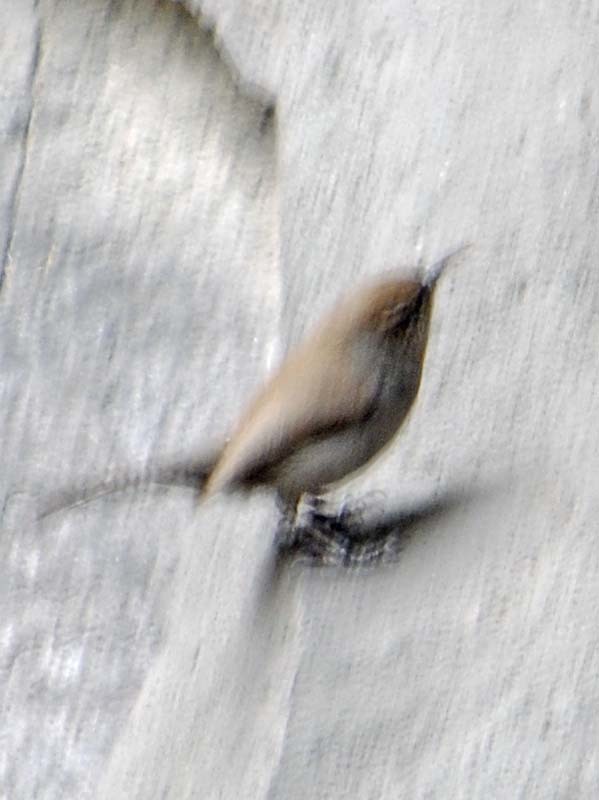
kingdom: Animalia
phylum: Chordata
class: Aves
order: Passeriformes
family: Troglodytidae
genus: Thryomanes
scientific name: Thryomanes bewickii
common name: Bewick's wren
